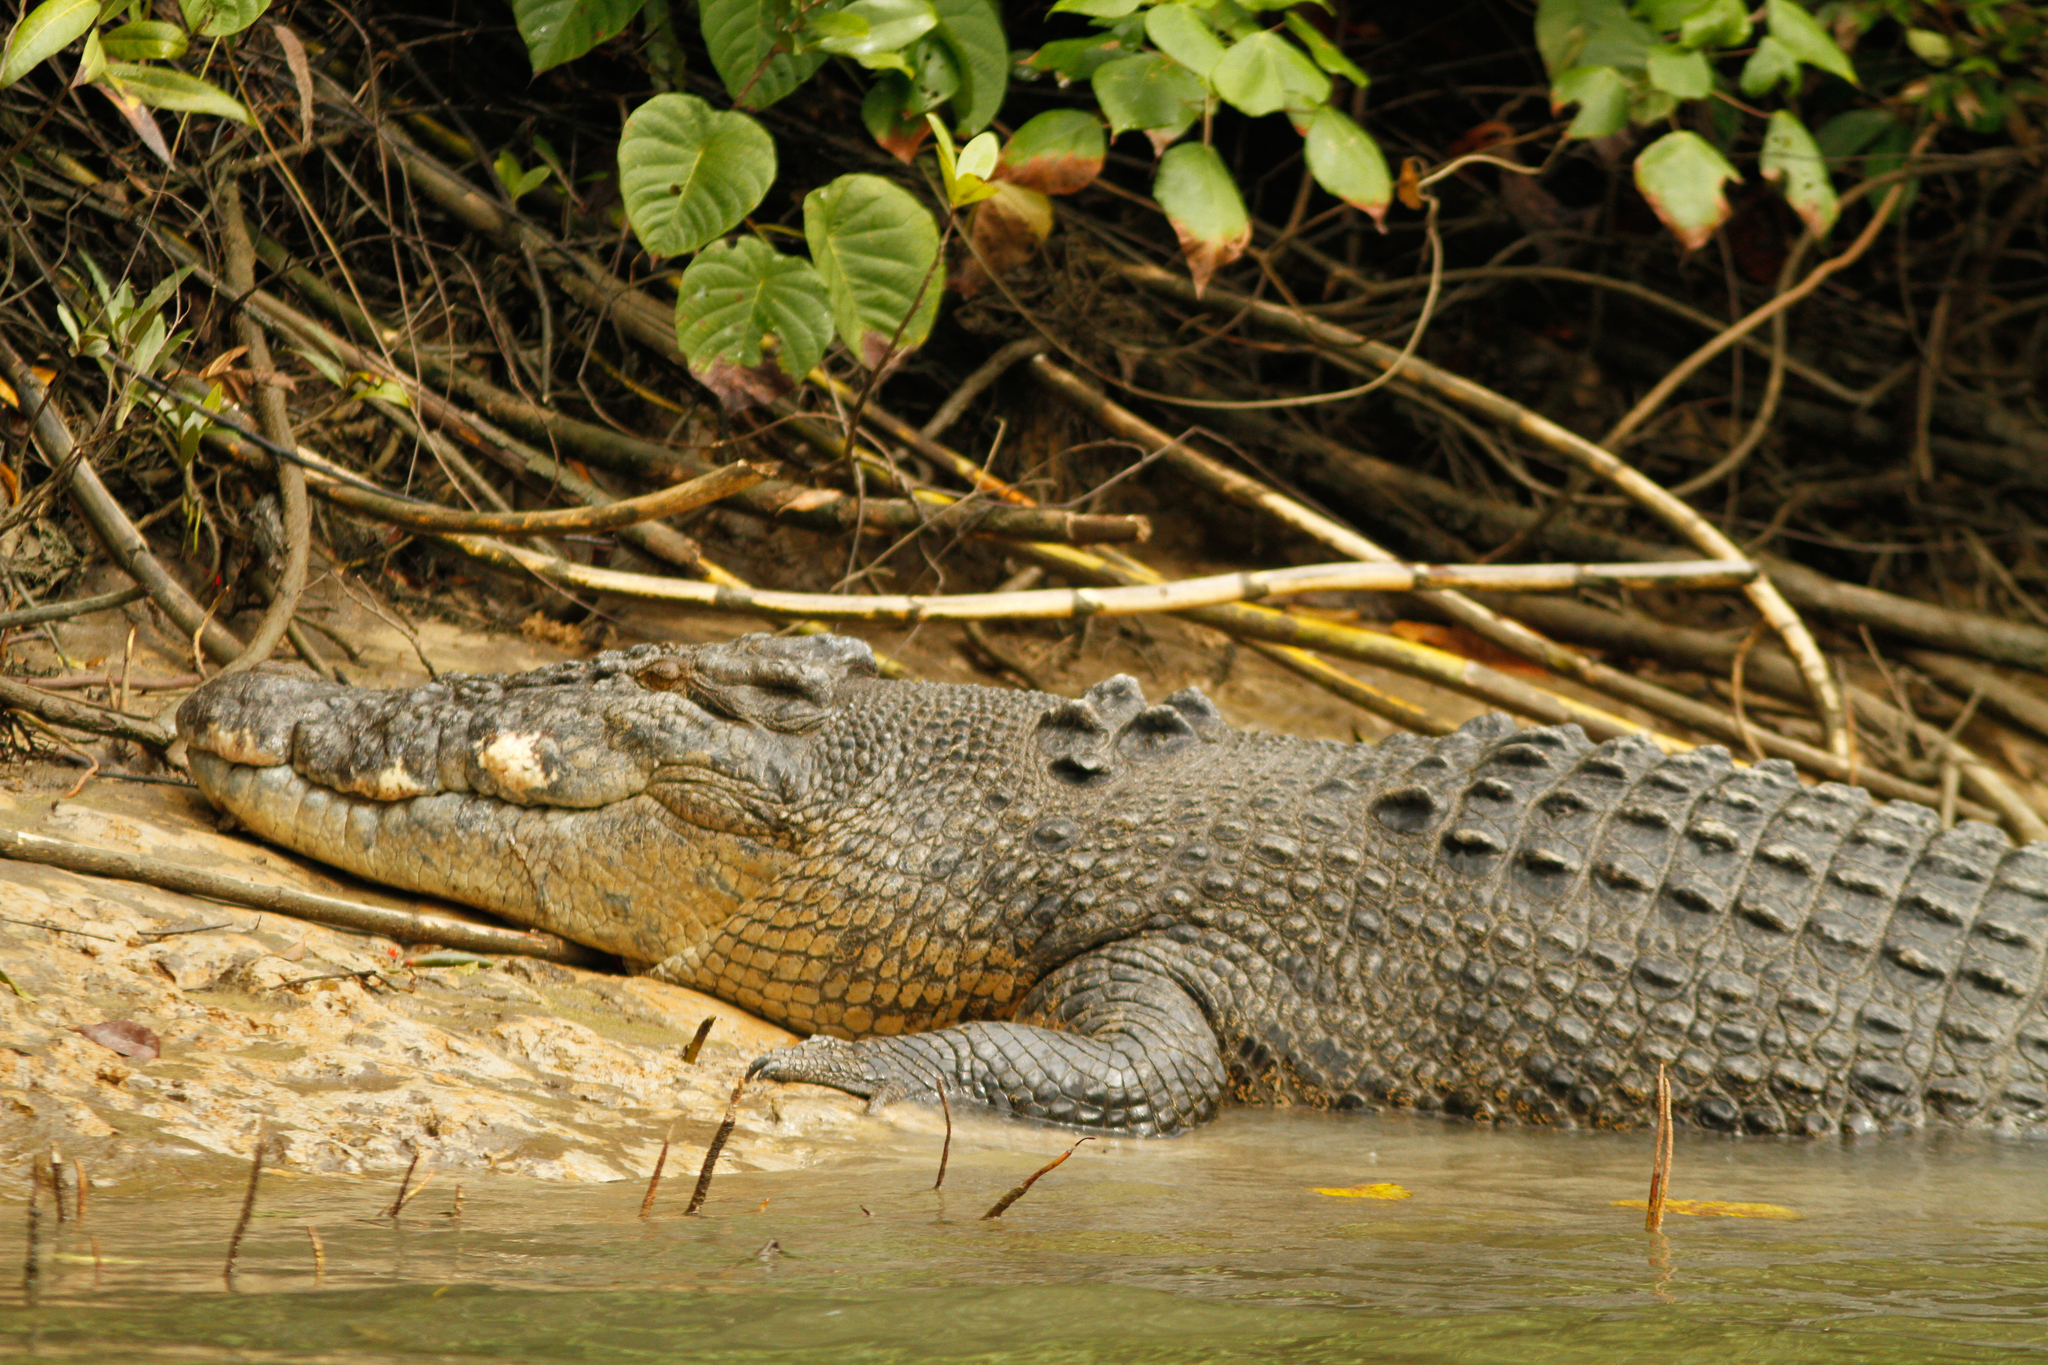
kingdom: Animalia
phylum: Chordata
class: Crocodylia
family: Crocodylidae
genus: Crocodylus
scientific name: Crocodylus porosus
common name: Saltwater crocodile
